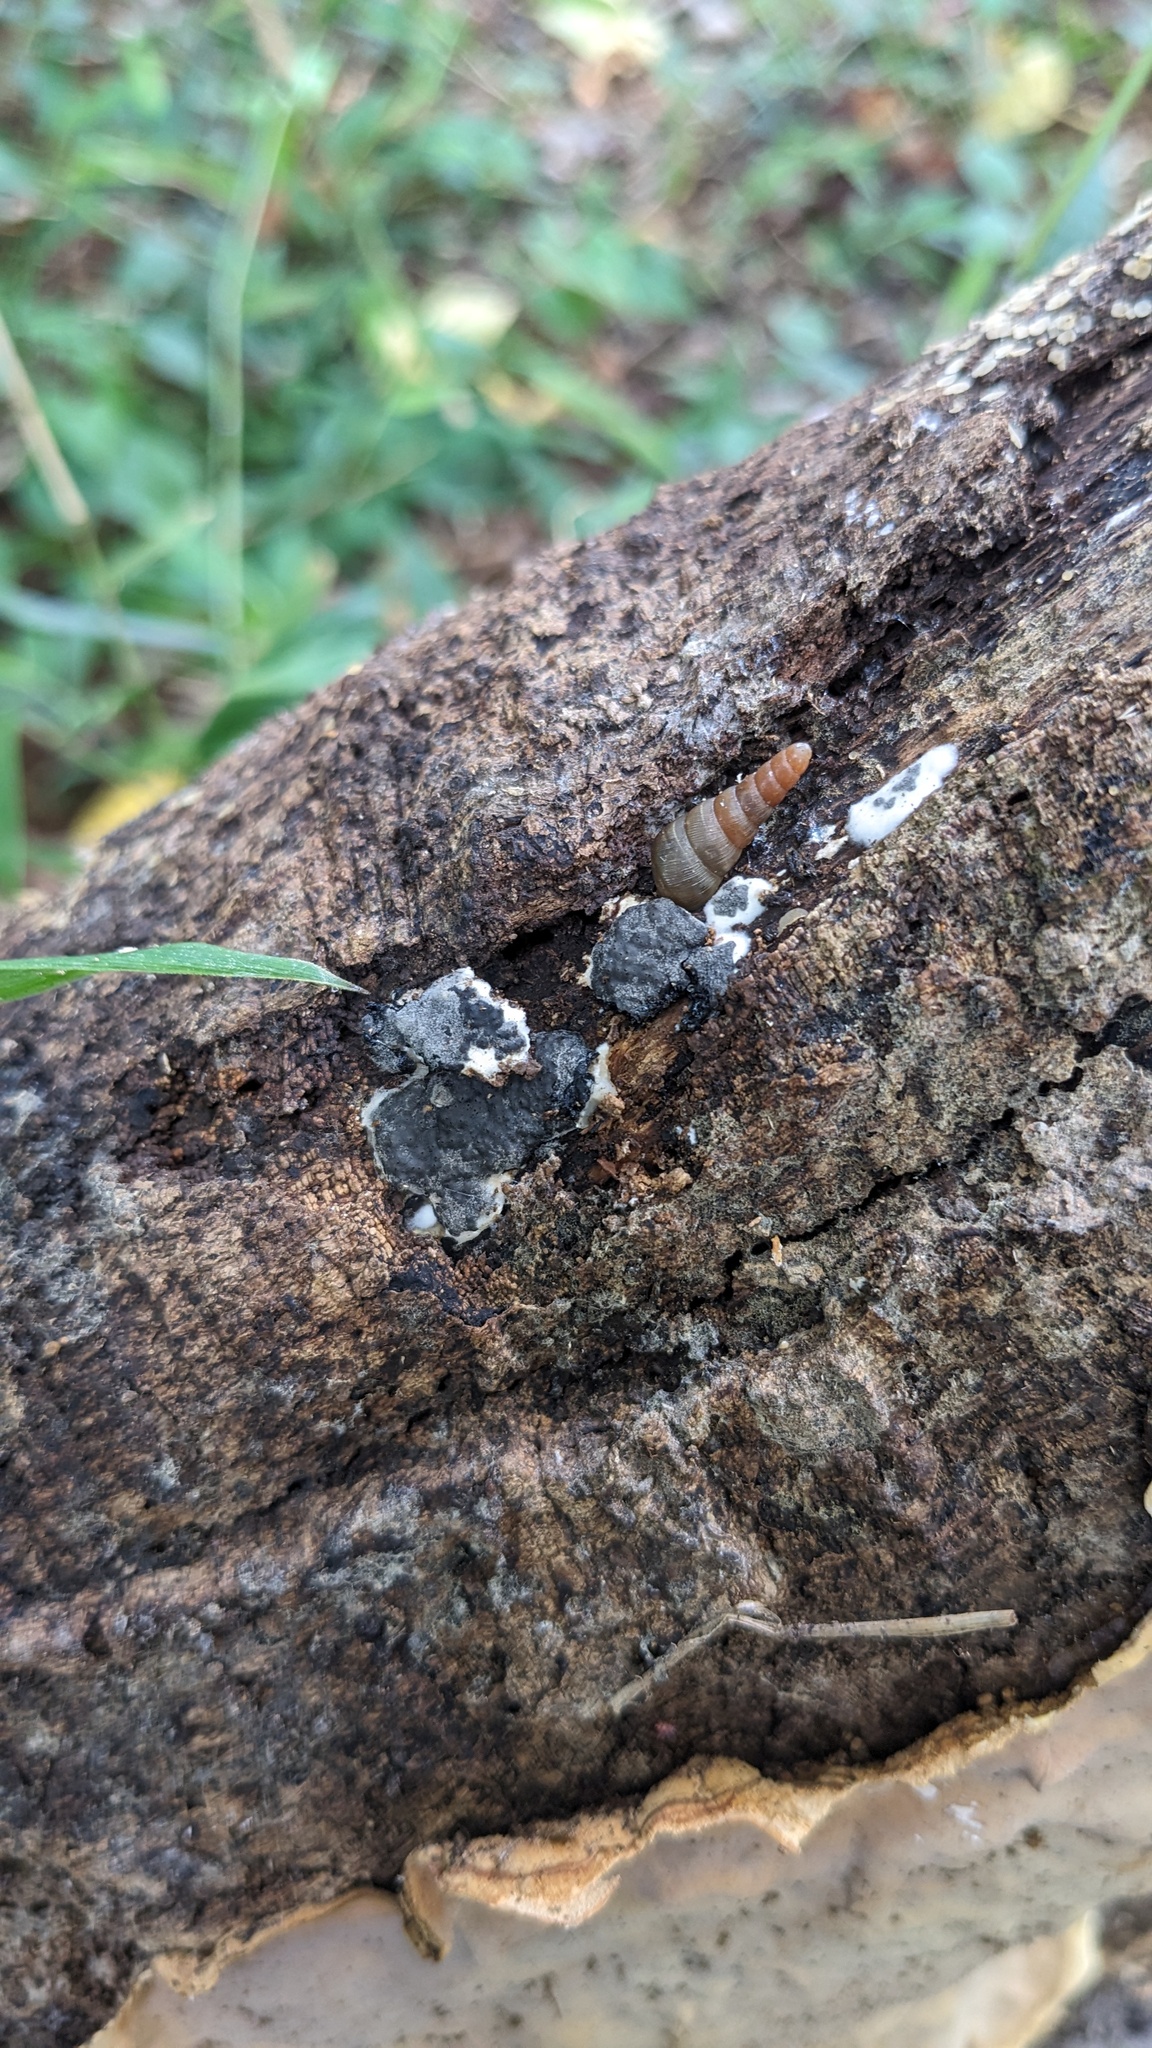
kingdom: Fungi
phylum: Ascomycota
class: Sordariomycetes
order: Xylariales
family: Xylariaceae
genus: Kretzschmaria
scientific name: Kretzschmaria deusta
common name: Brittle cinder
